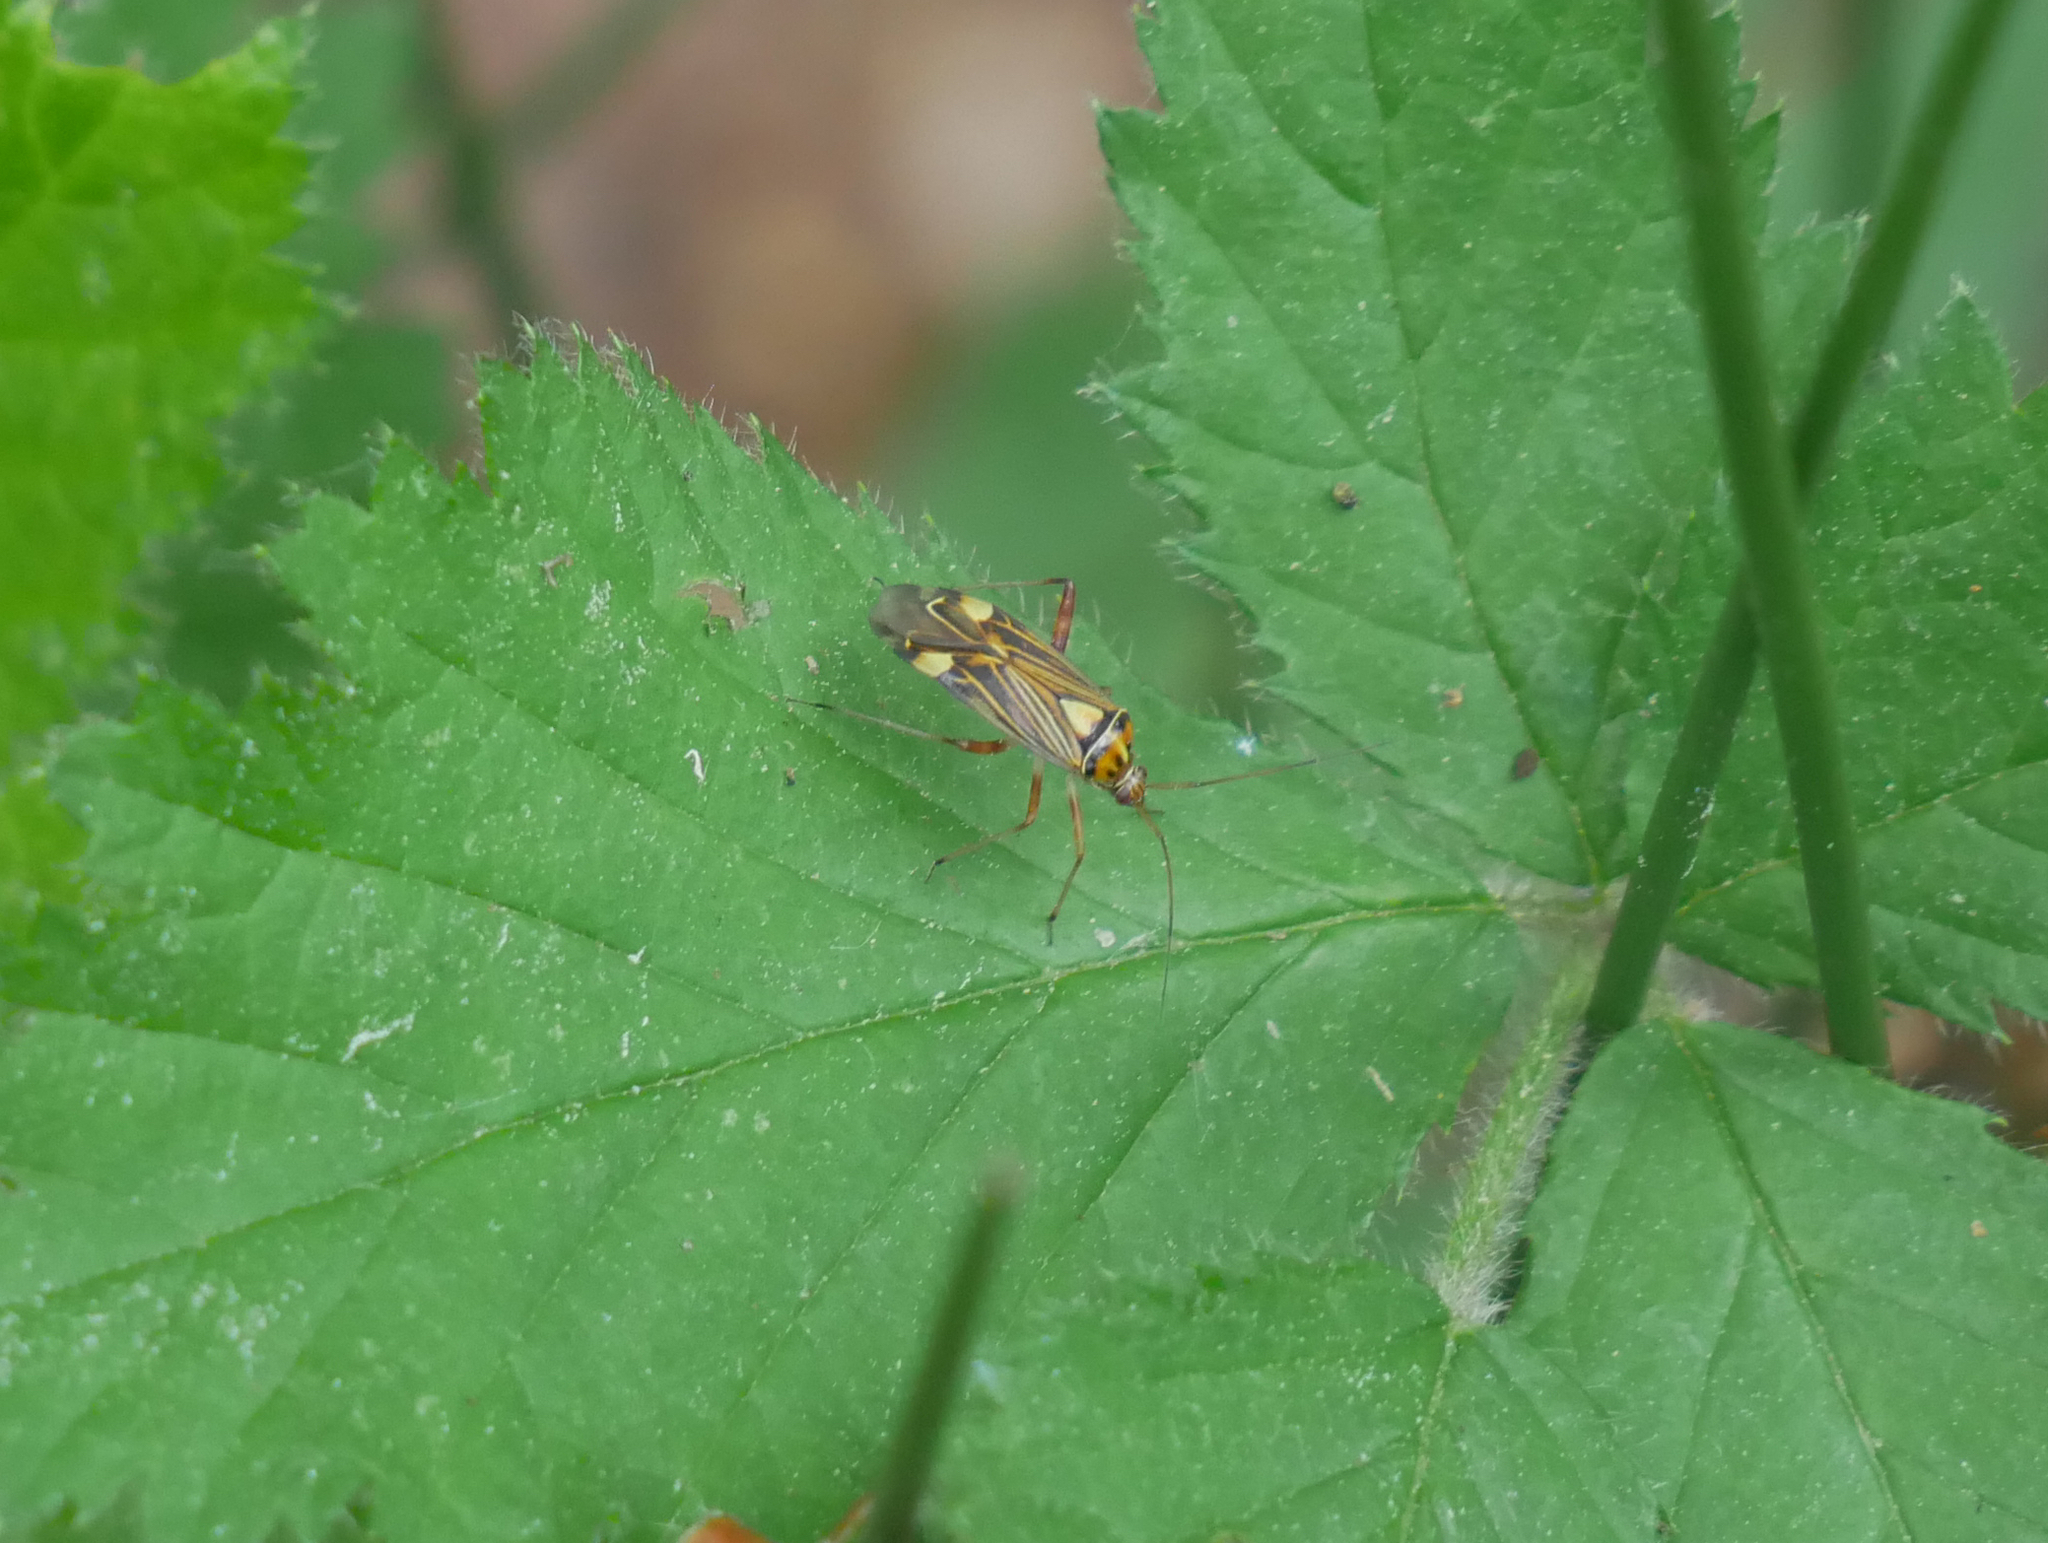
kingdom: Animalia
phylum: Arthropoda
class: Insecta
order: Hemiptera
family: Miridae
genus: Rhabdomiris
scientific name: Rhabdomiris striatellus
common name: Plant bug
